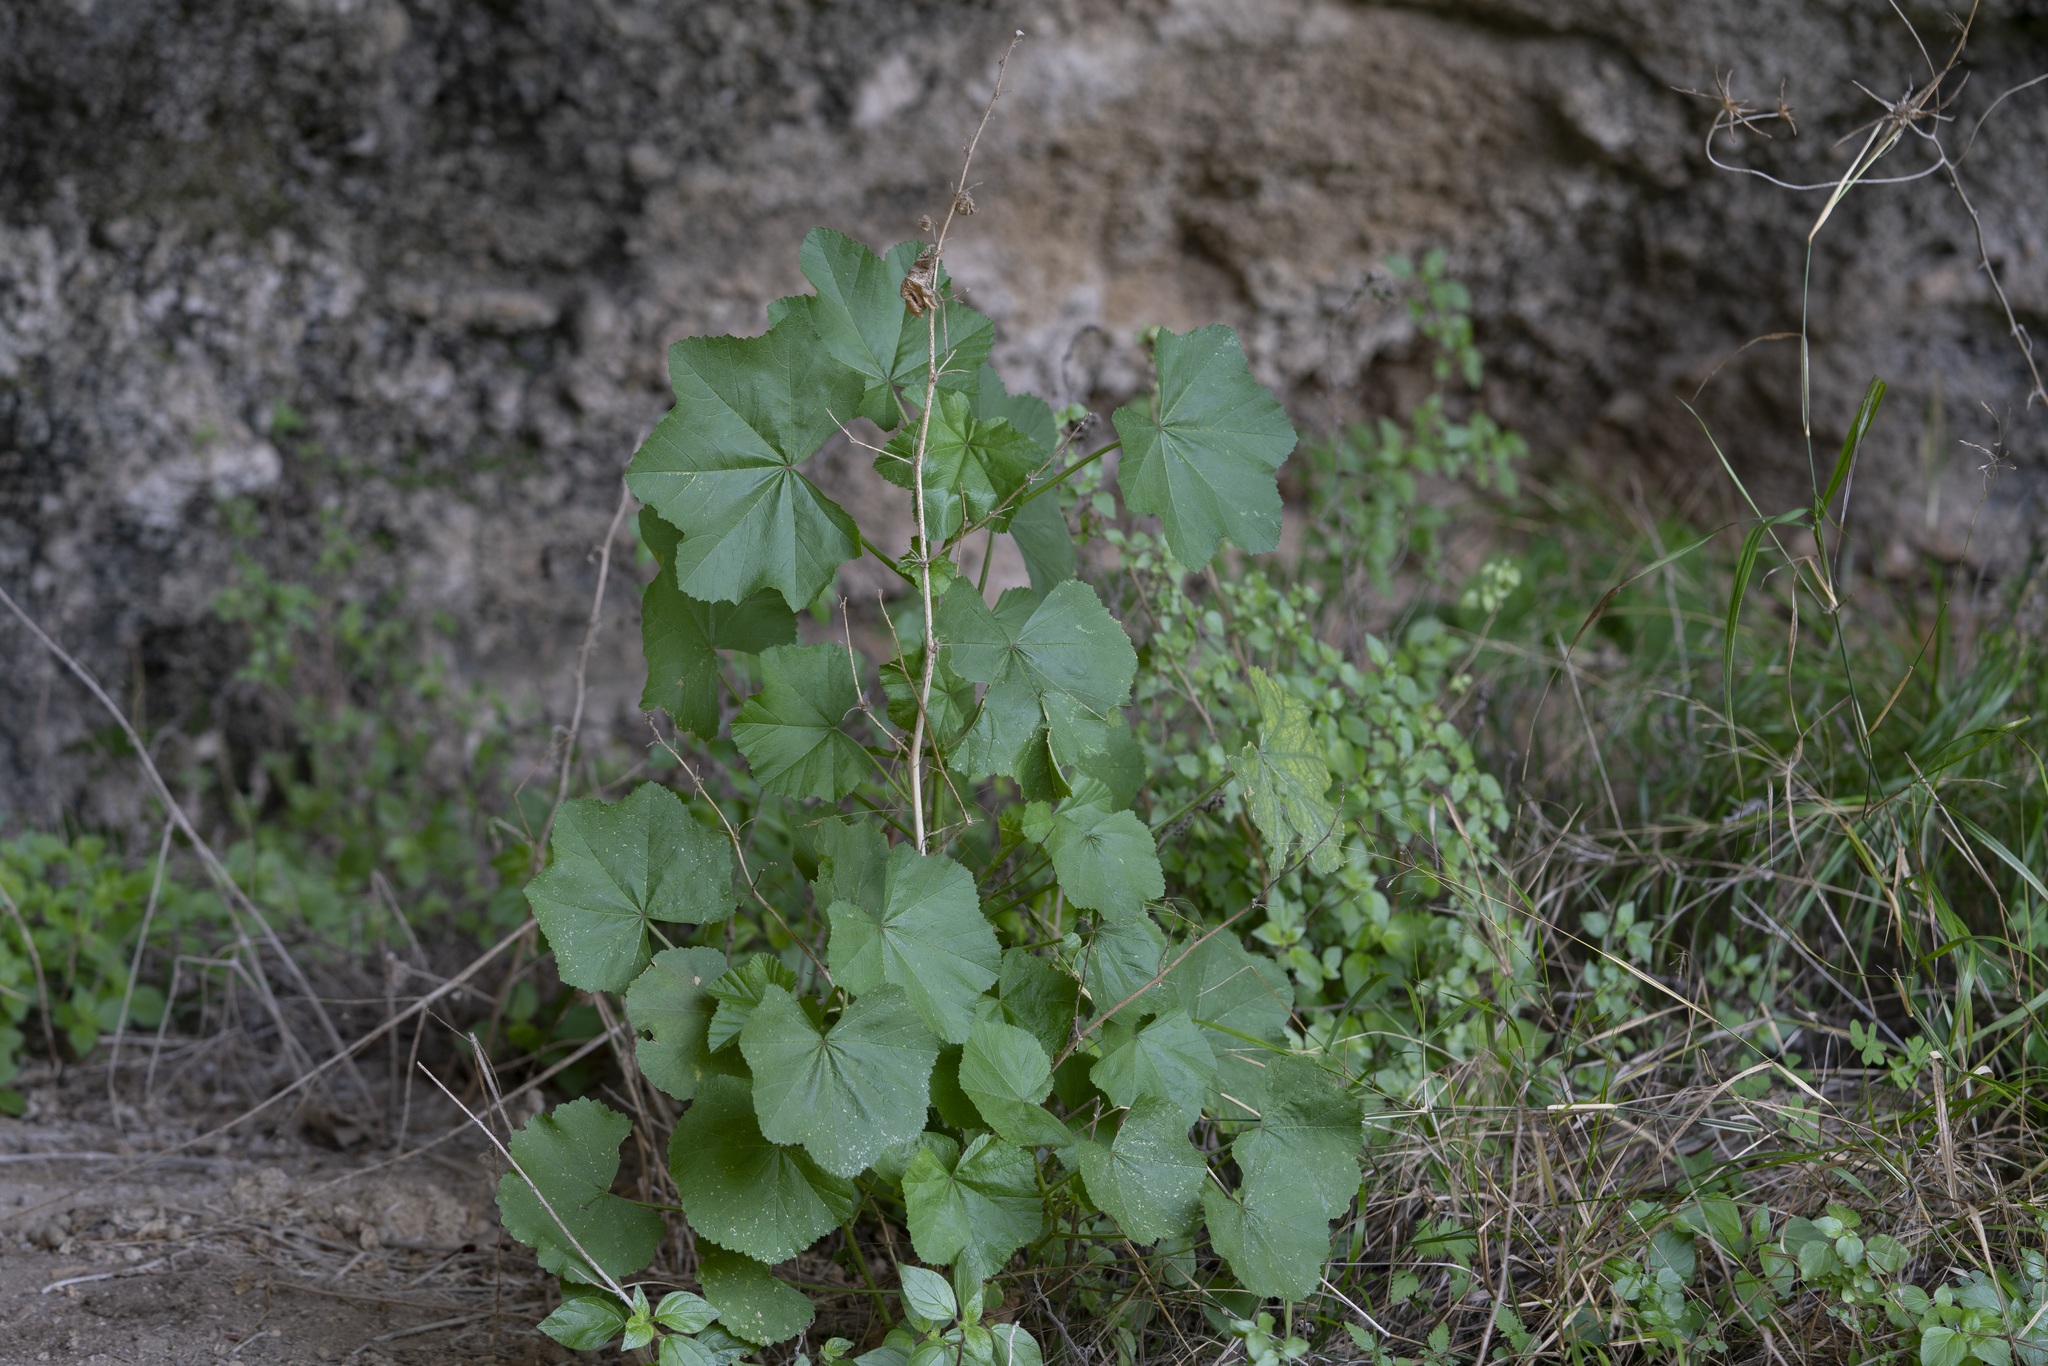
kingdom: Plantae
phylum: Tracheophyta
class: Magnoliopsida
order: Malvales
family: Malvaceae
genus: Malva
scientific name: Malva
